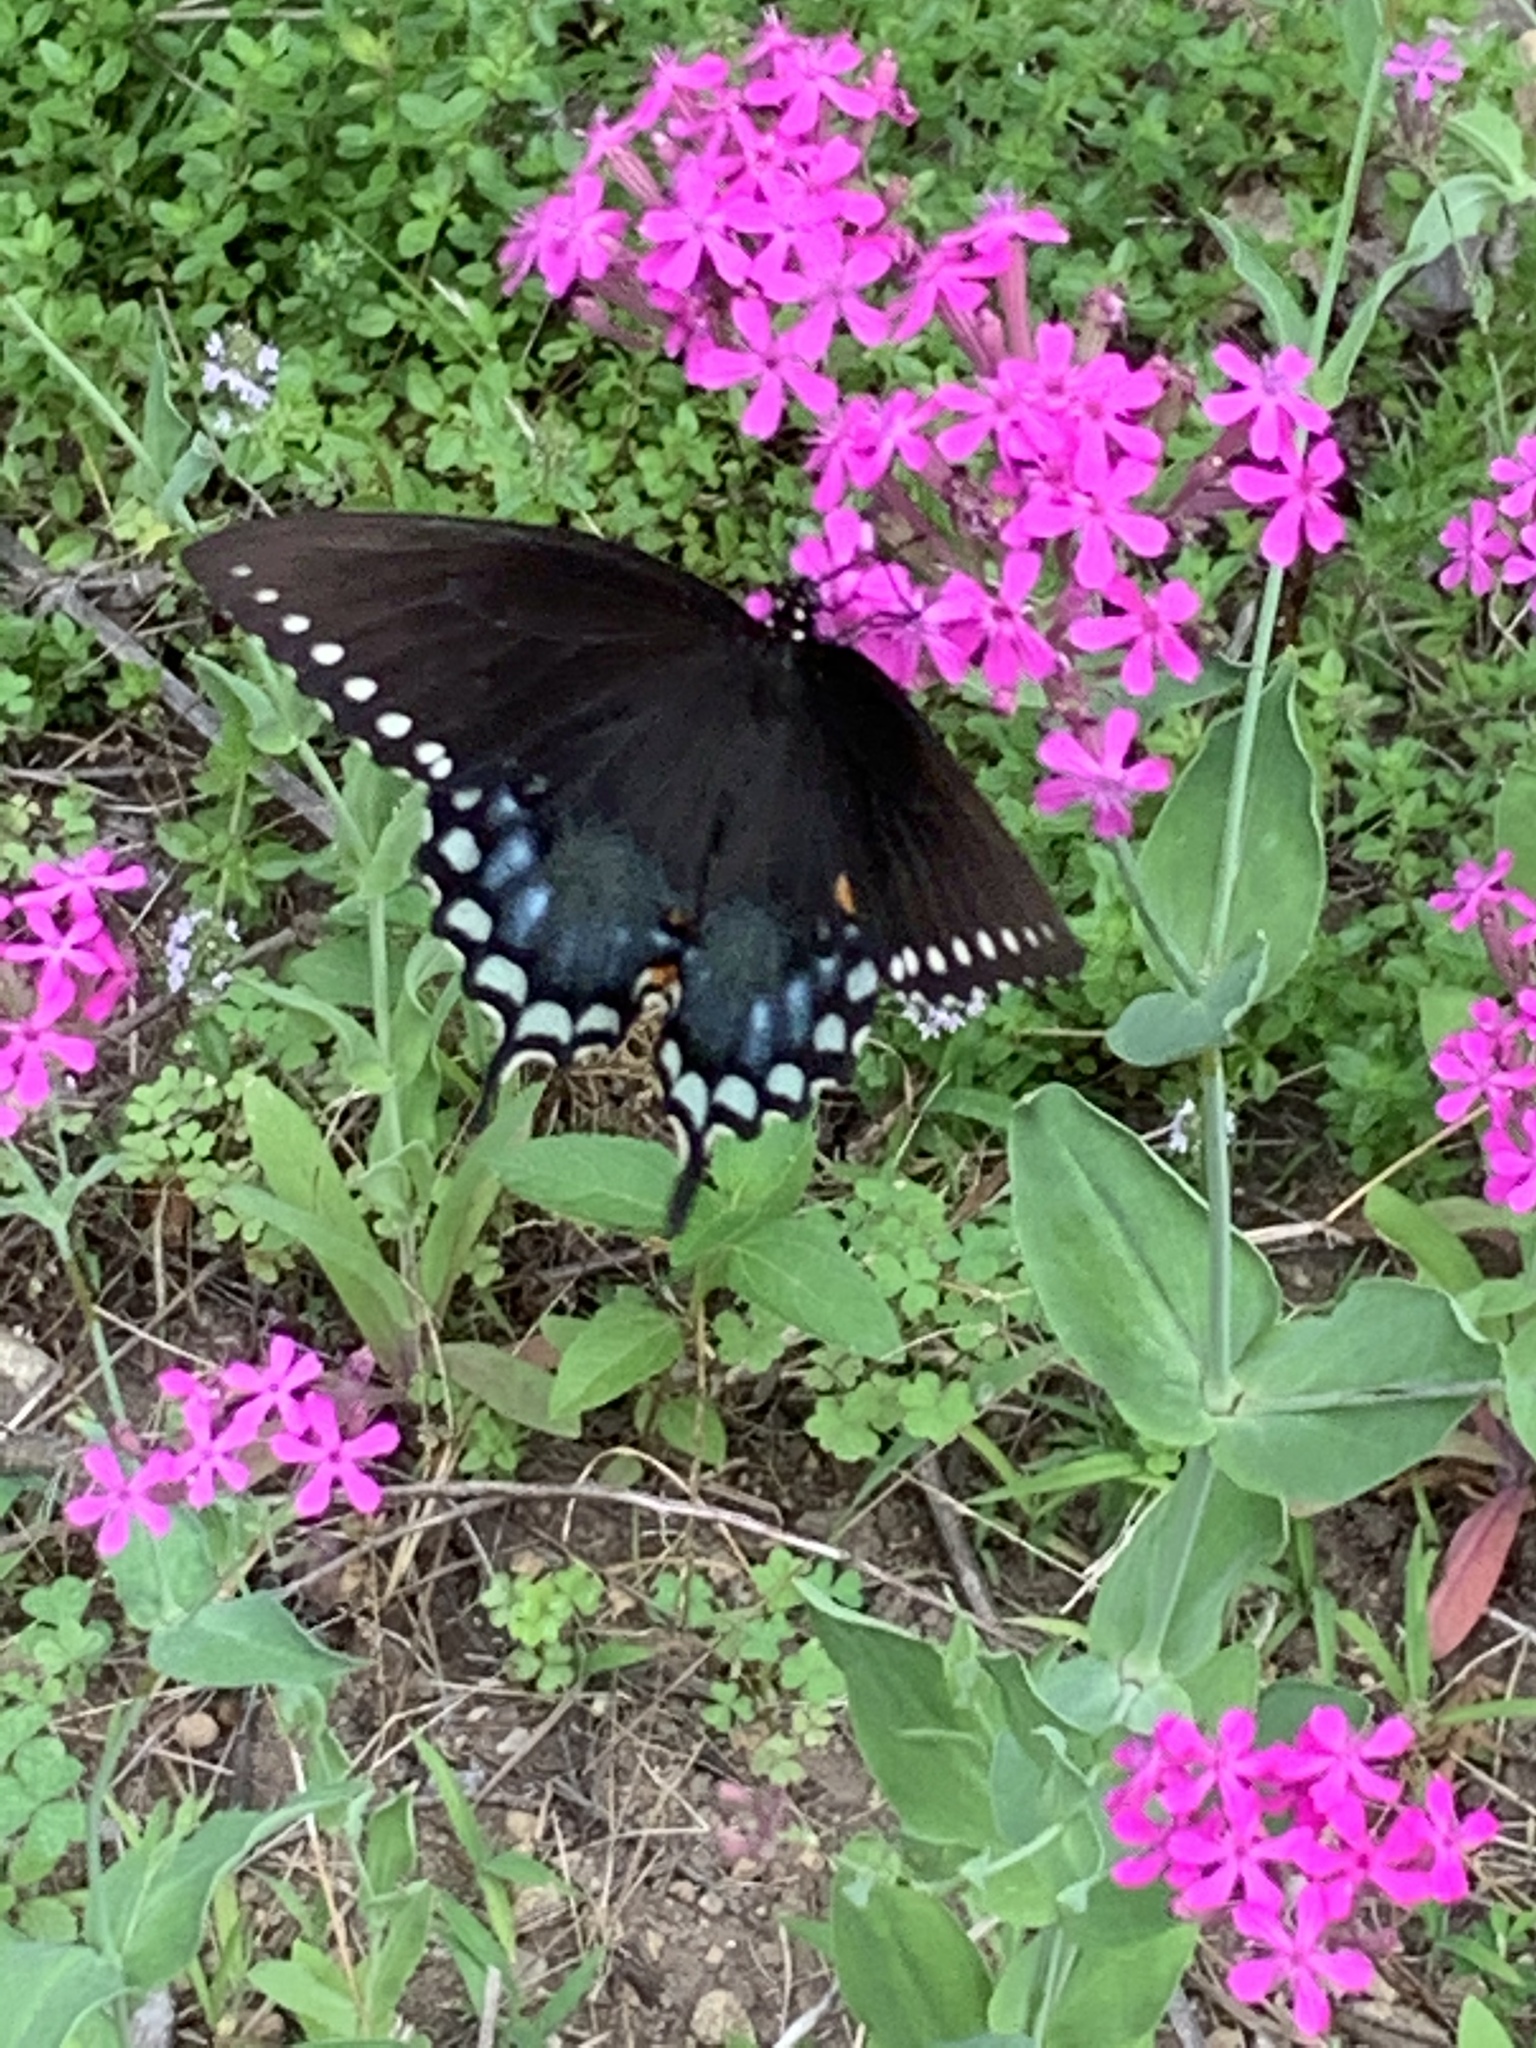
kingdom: Animalia
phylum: Arthropoda
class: Insecta
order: Lepidoptera
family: Papilionidae
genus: Papilio
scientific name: Papilio troilus
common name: Spicebush swallowtail
